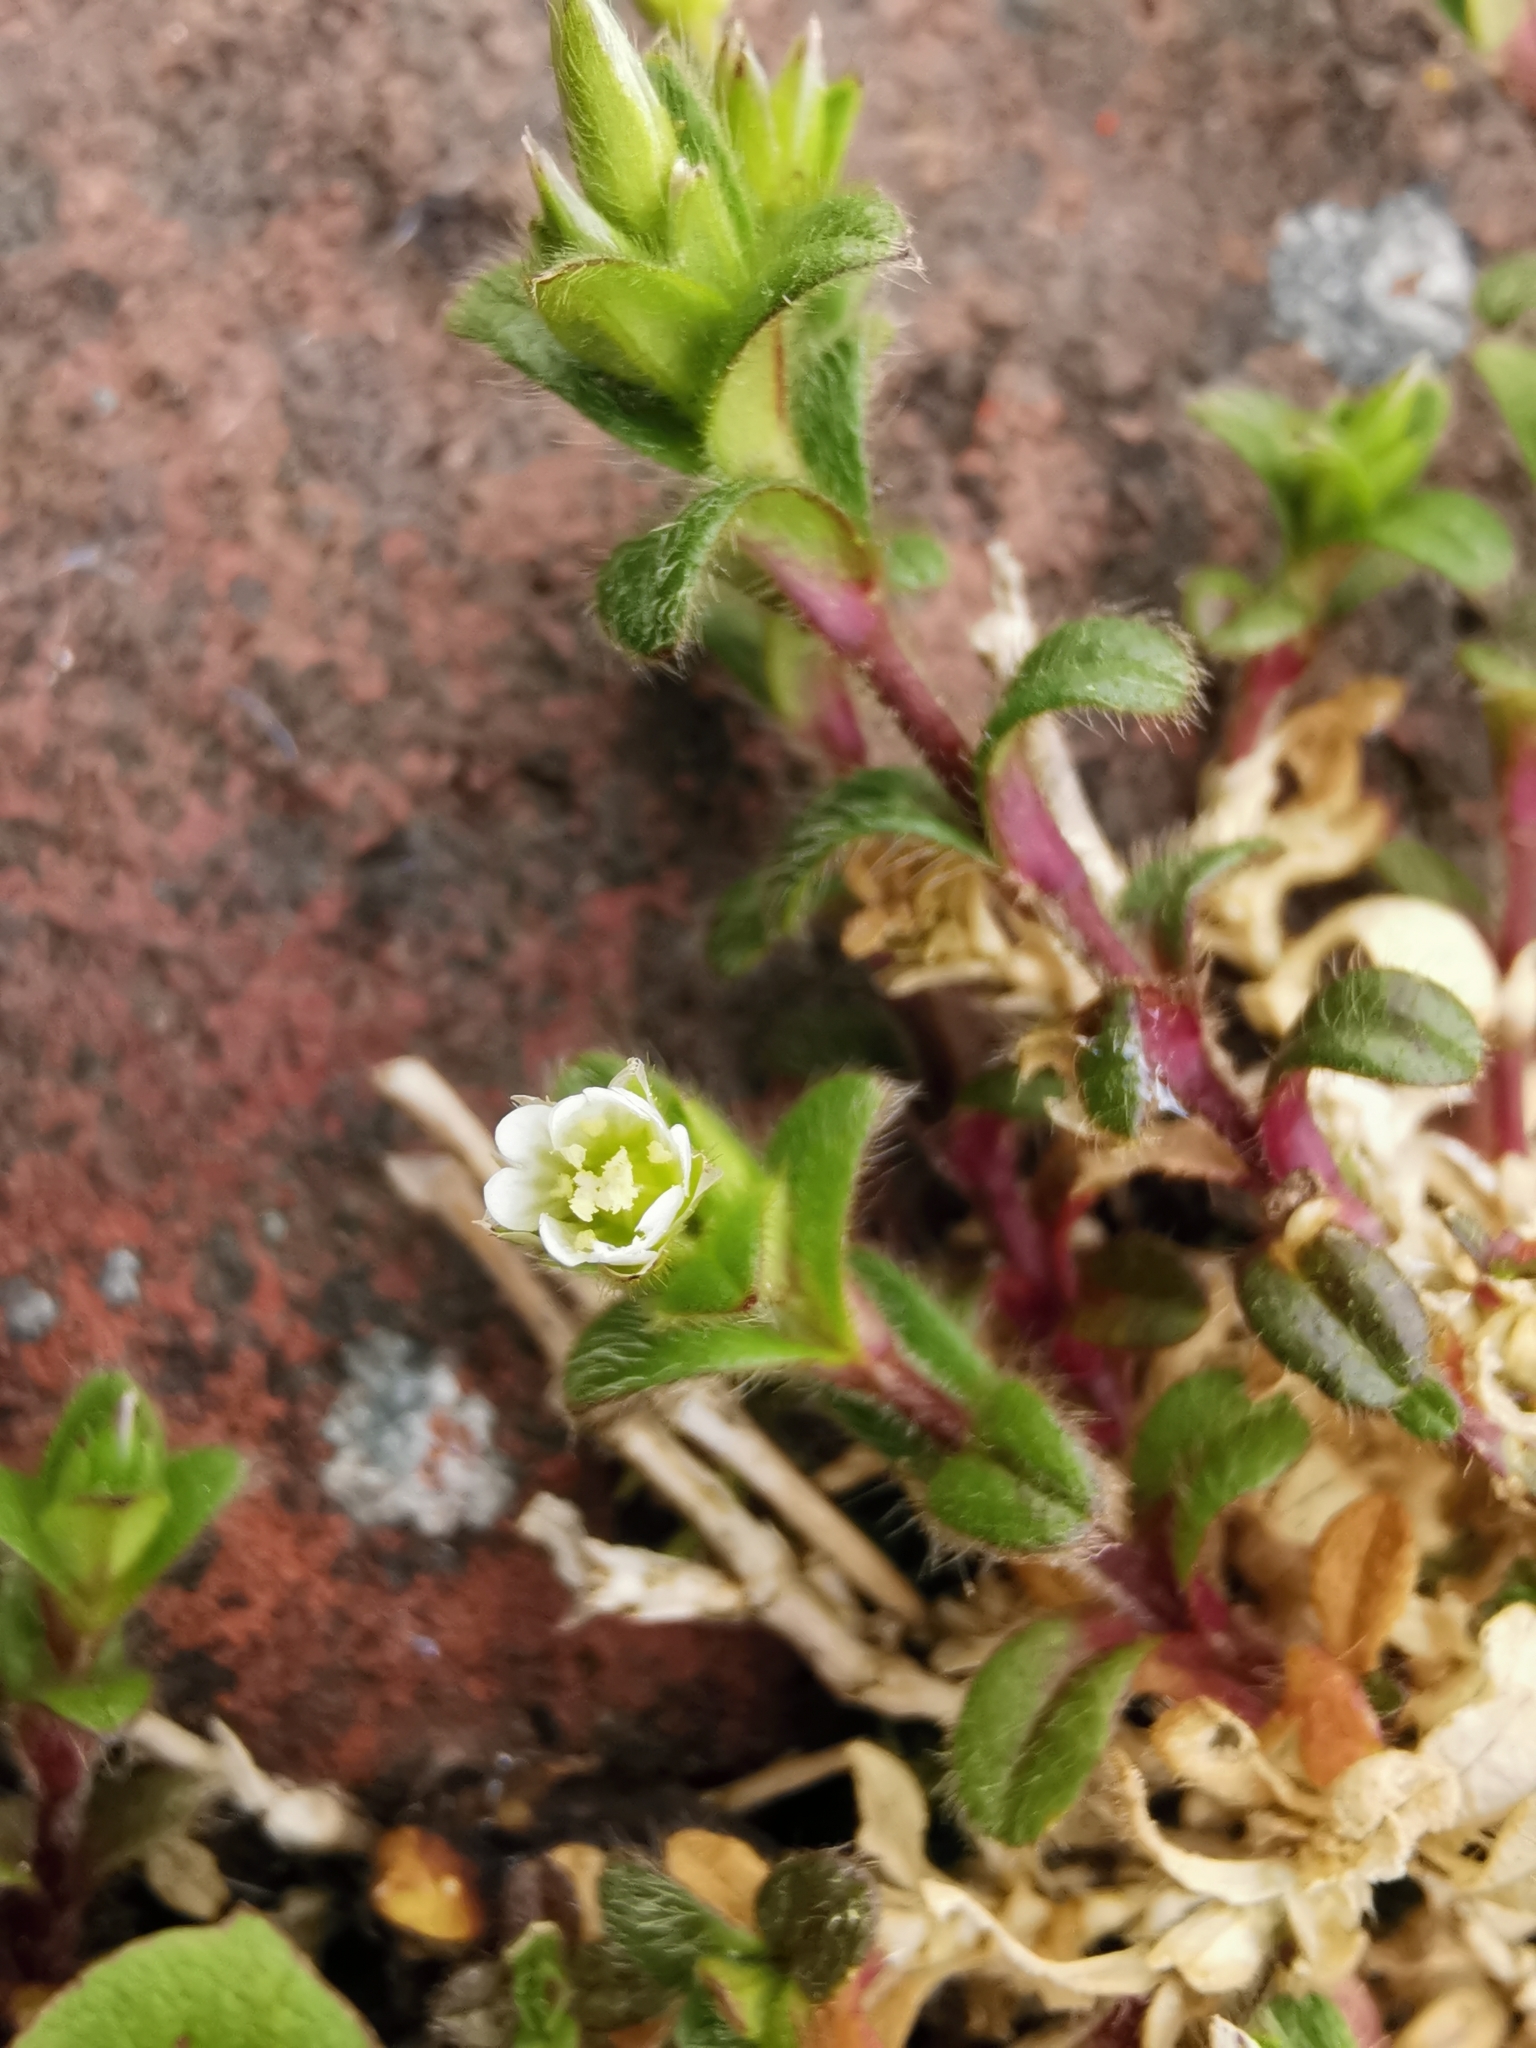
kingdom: Plantae
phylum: Tracheophyta
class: Magnoliopsida
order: Caryophyllales
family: Caryophyllaceae
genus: Cerastium
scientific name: Cerastium fontanum
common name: Common mouse-ear
